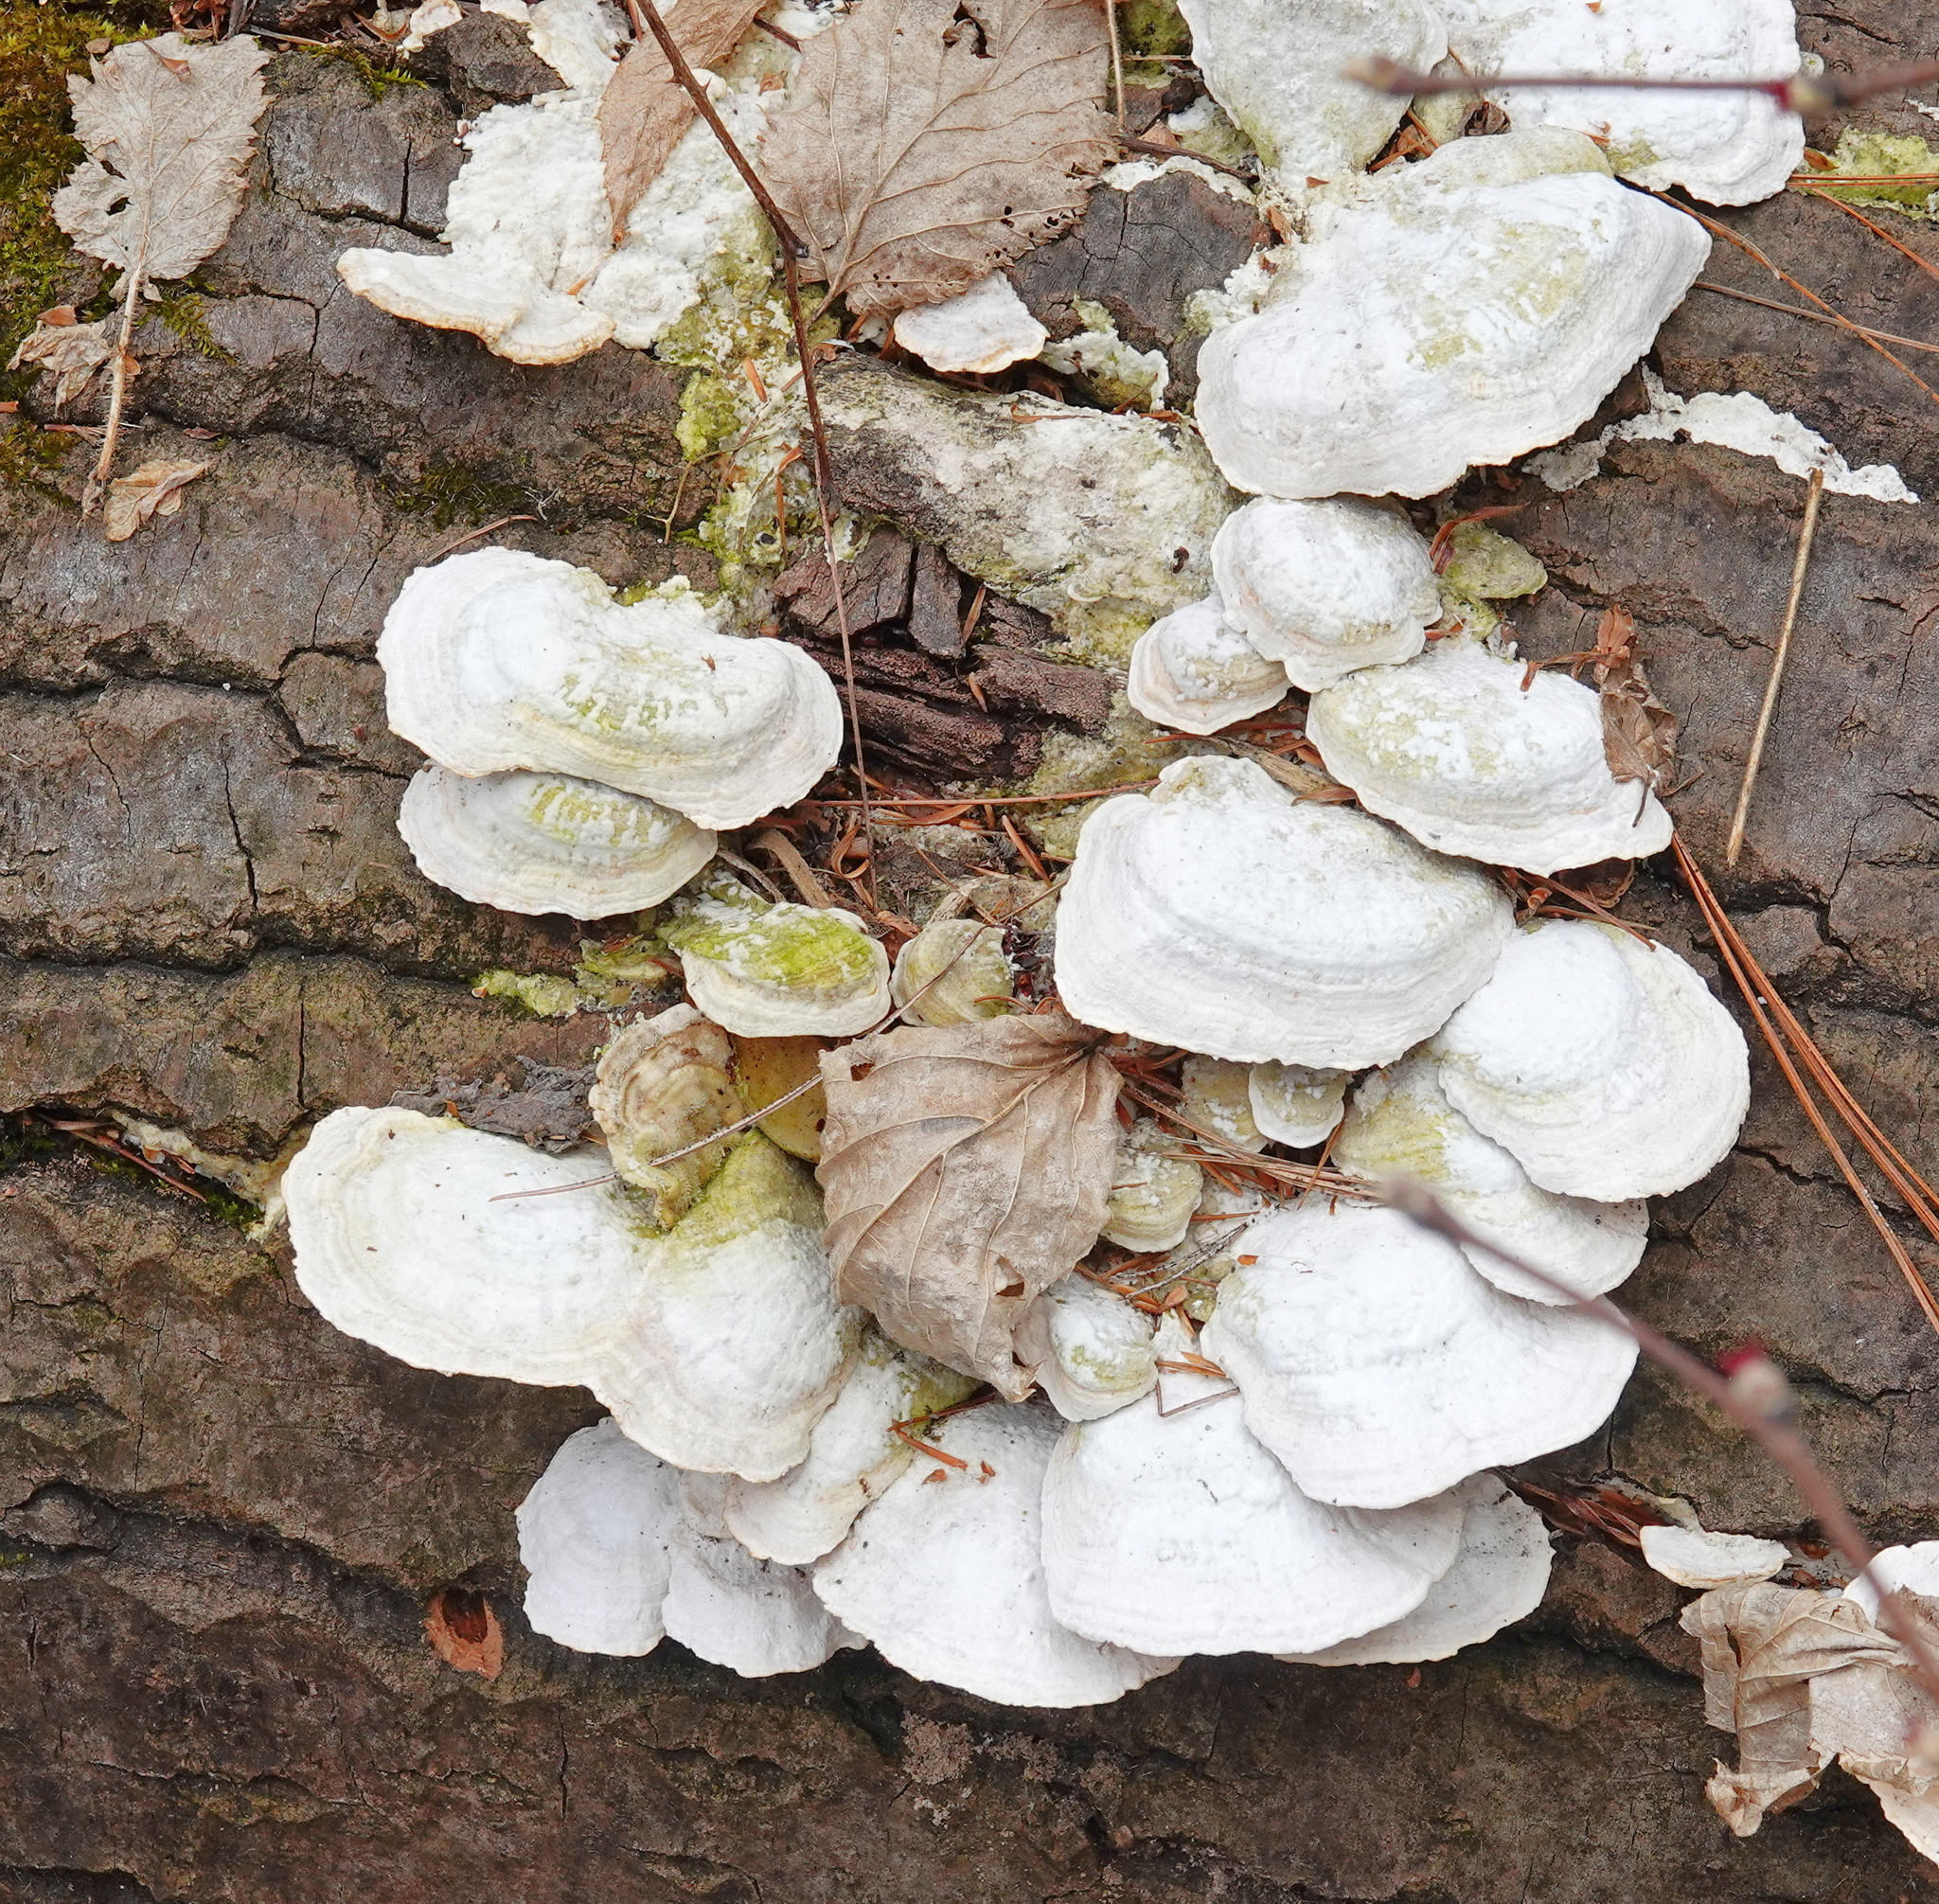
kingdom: Fungi
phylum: Basidiomycota
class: Agaricomycetes
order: Polyporales
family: Polyporaceae
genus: Trametes
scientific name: Trametes pubescens
